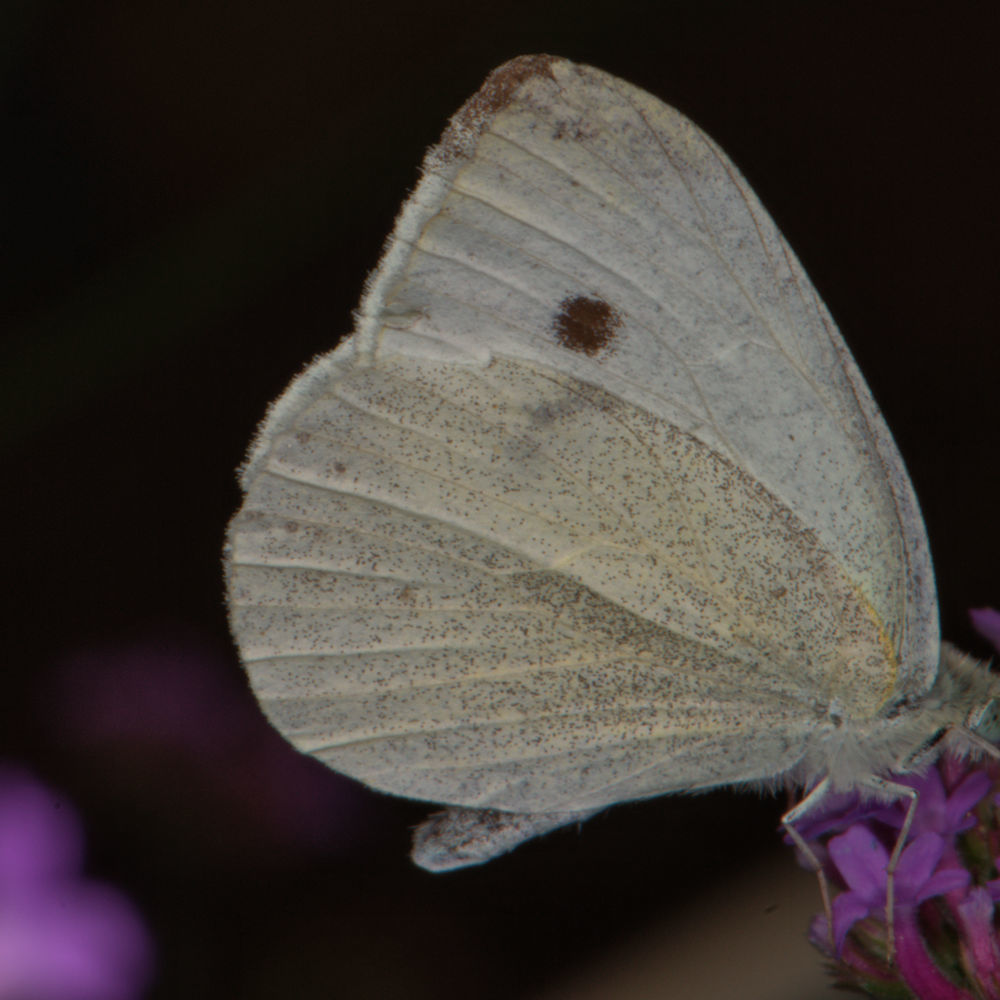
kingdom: Animalia
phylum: Arthropoda
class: Insecta
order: Lepidoptera
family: Pieridae
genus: Pieris
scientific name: Pieris rapae
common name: Small white
